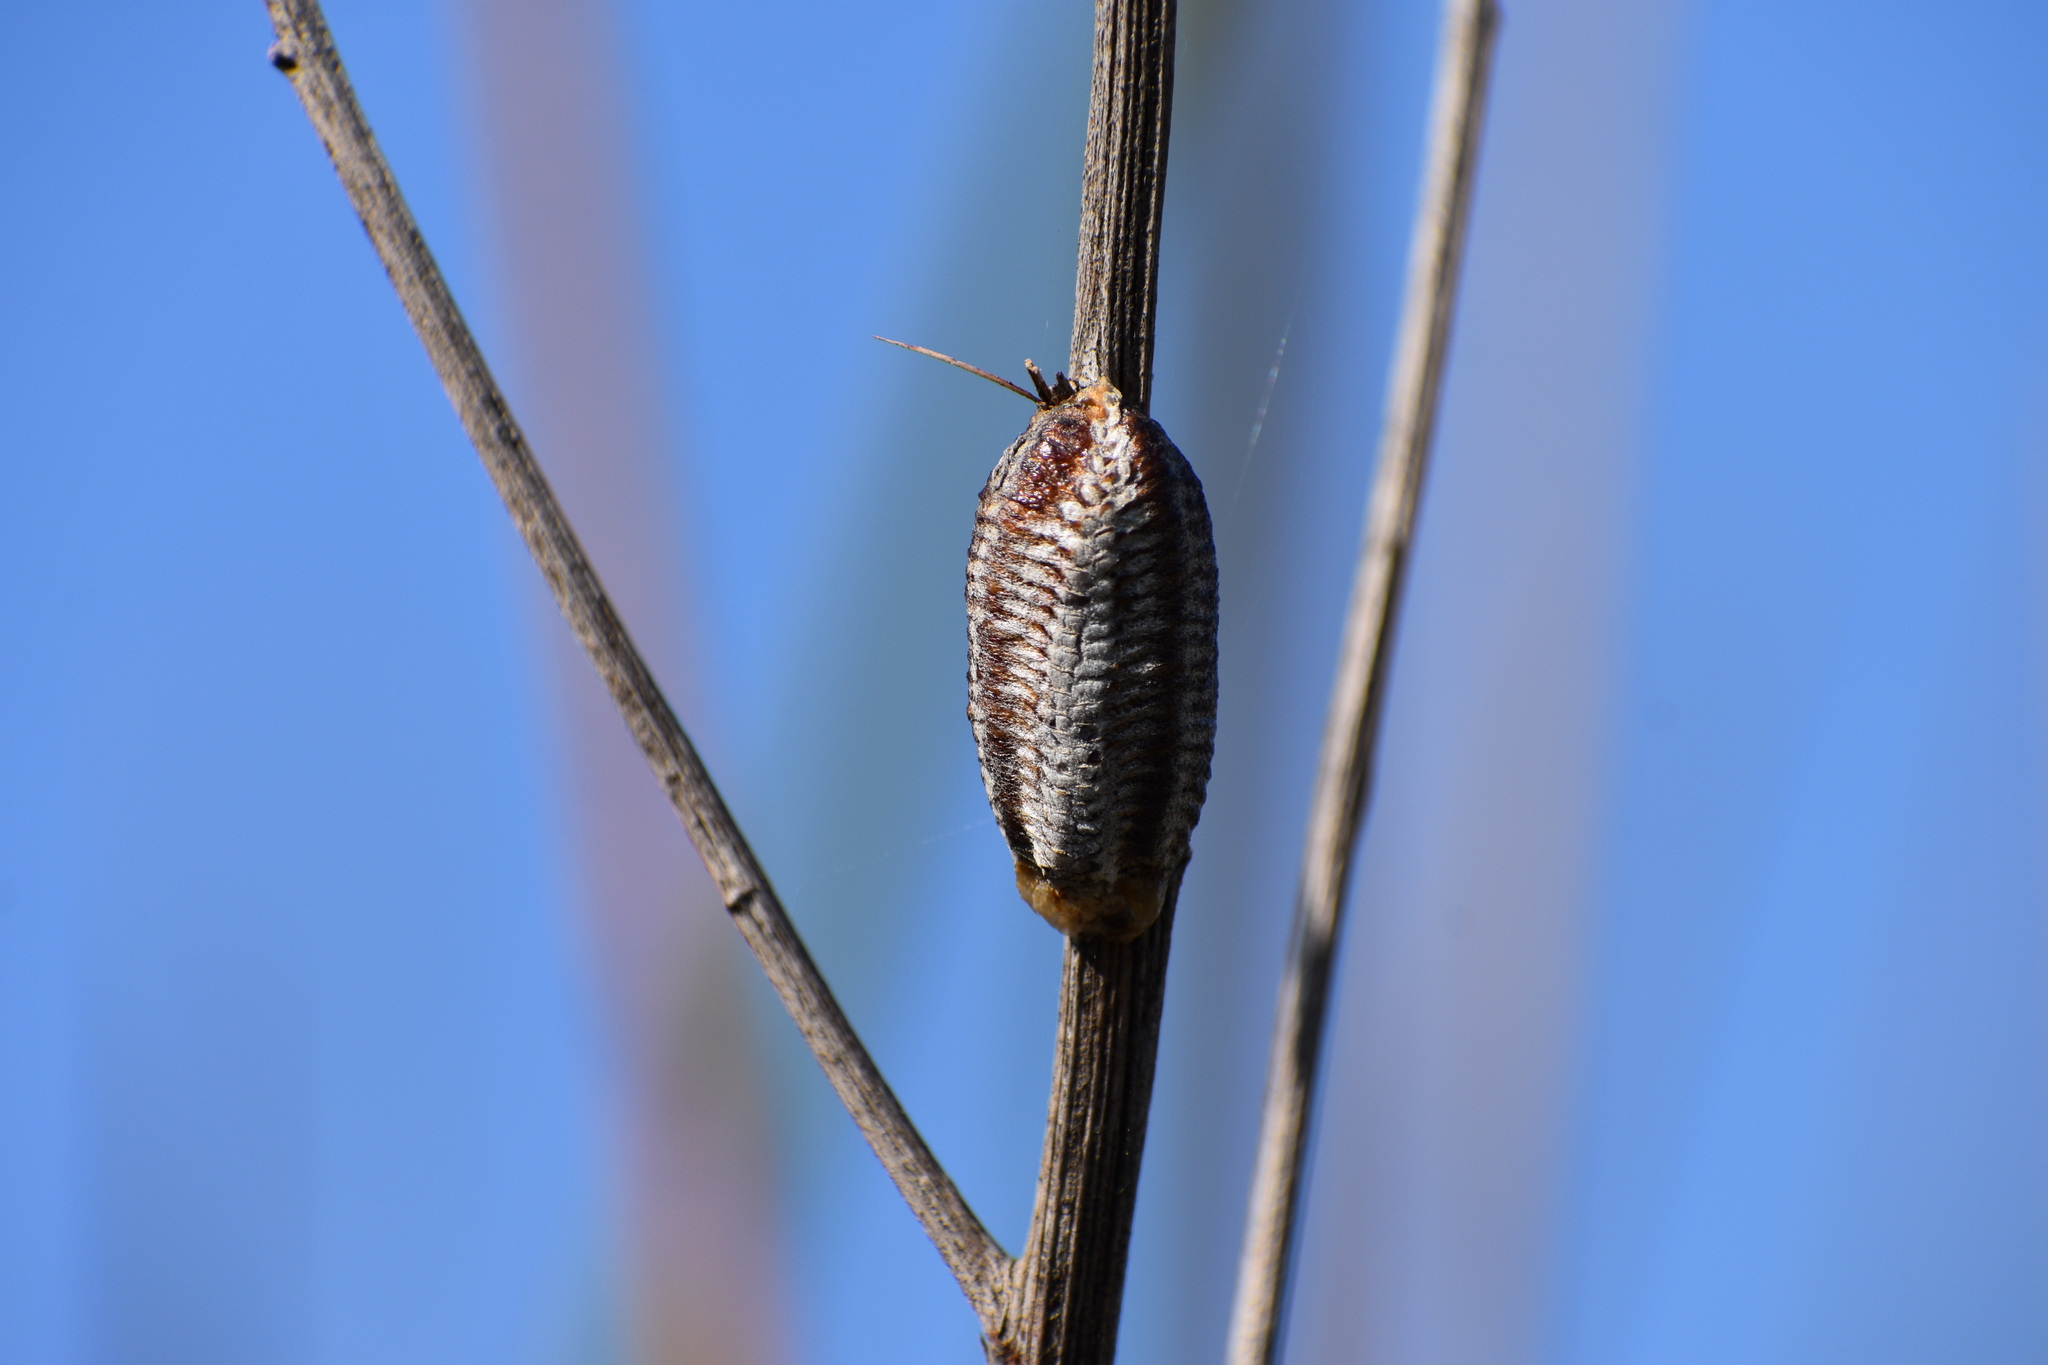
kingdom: Animalia
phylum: Arthropoda
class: Insecta
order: Mantodea
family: Mantidae
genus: Stagmomantis
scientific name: Stagmomantis limbata
